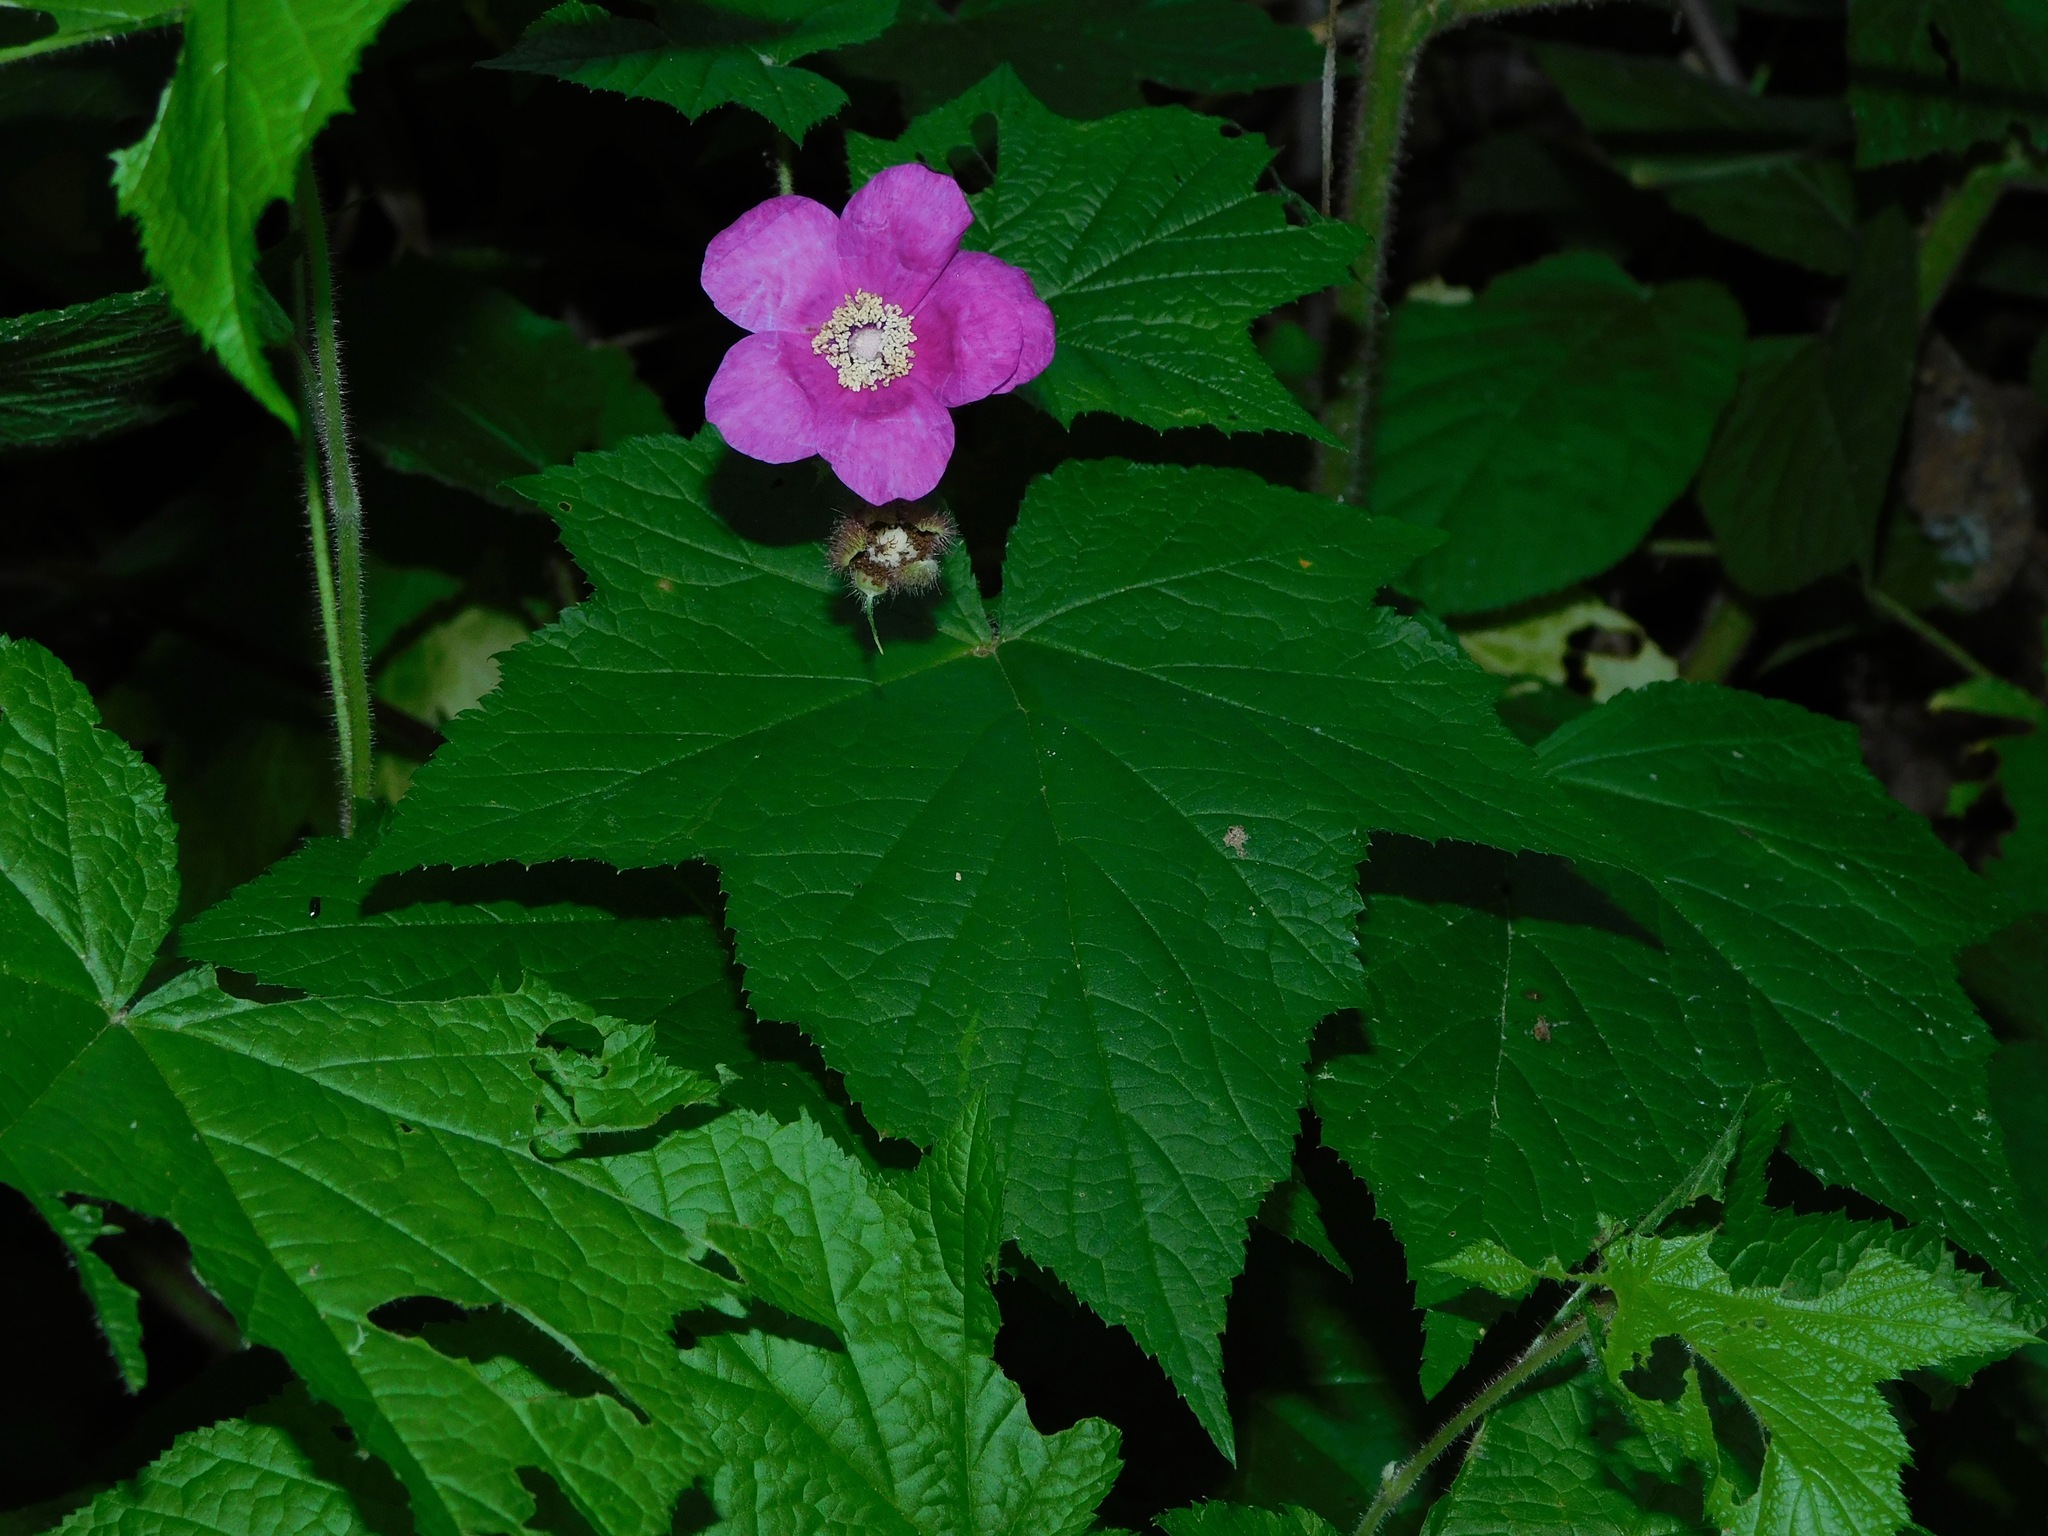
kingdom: Plantae
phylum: Tracheophyta
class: Magnoliopsida
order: Rosales
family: Rosaceae
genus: Rubus
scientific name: Rubus odoratus
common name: Purple-flowered raspberry
